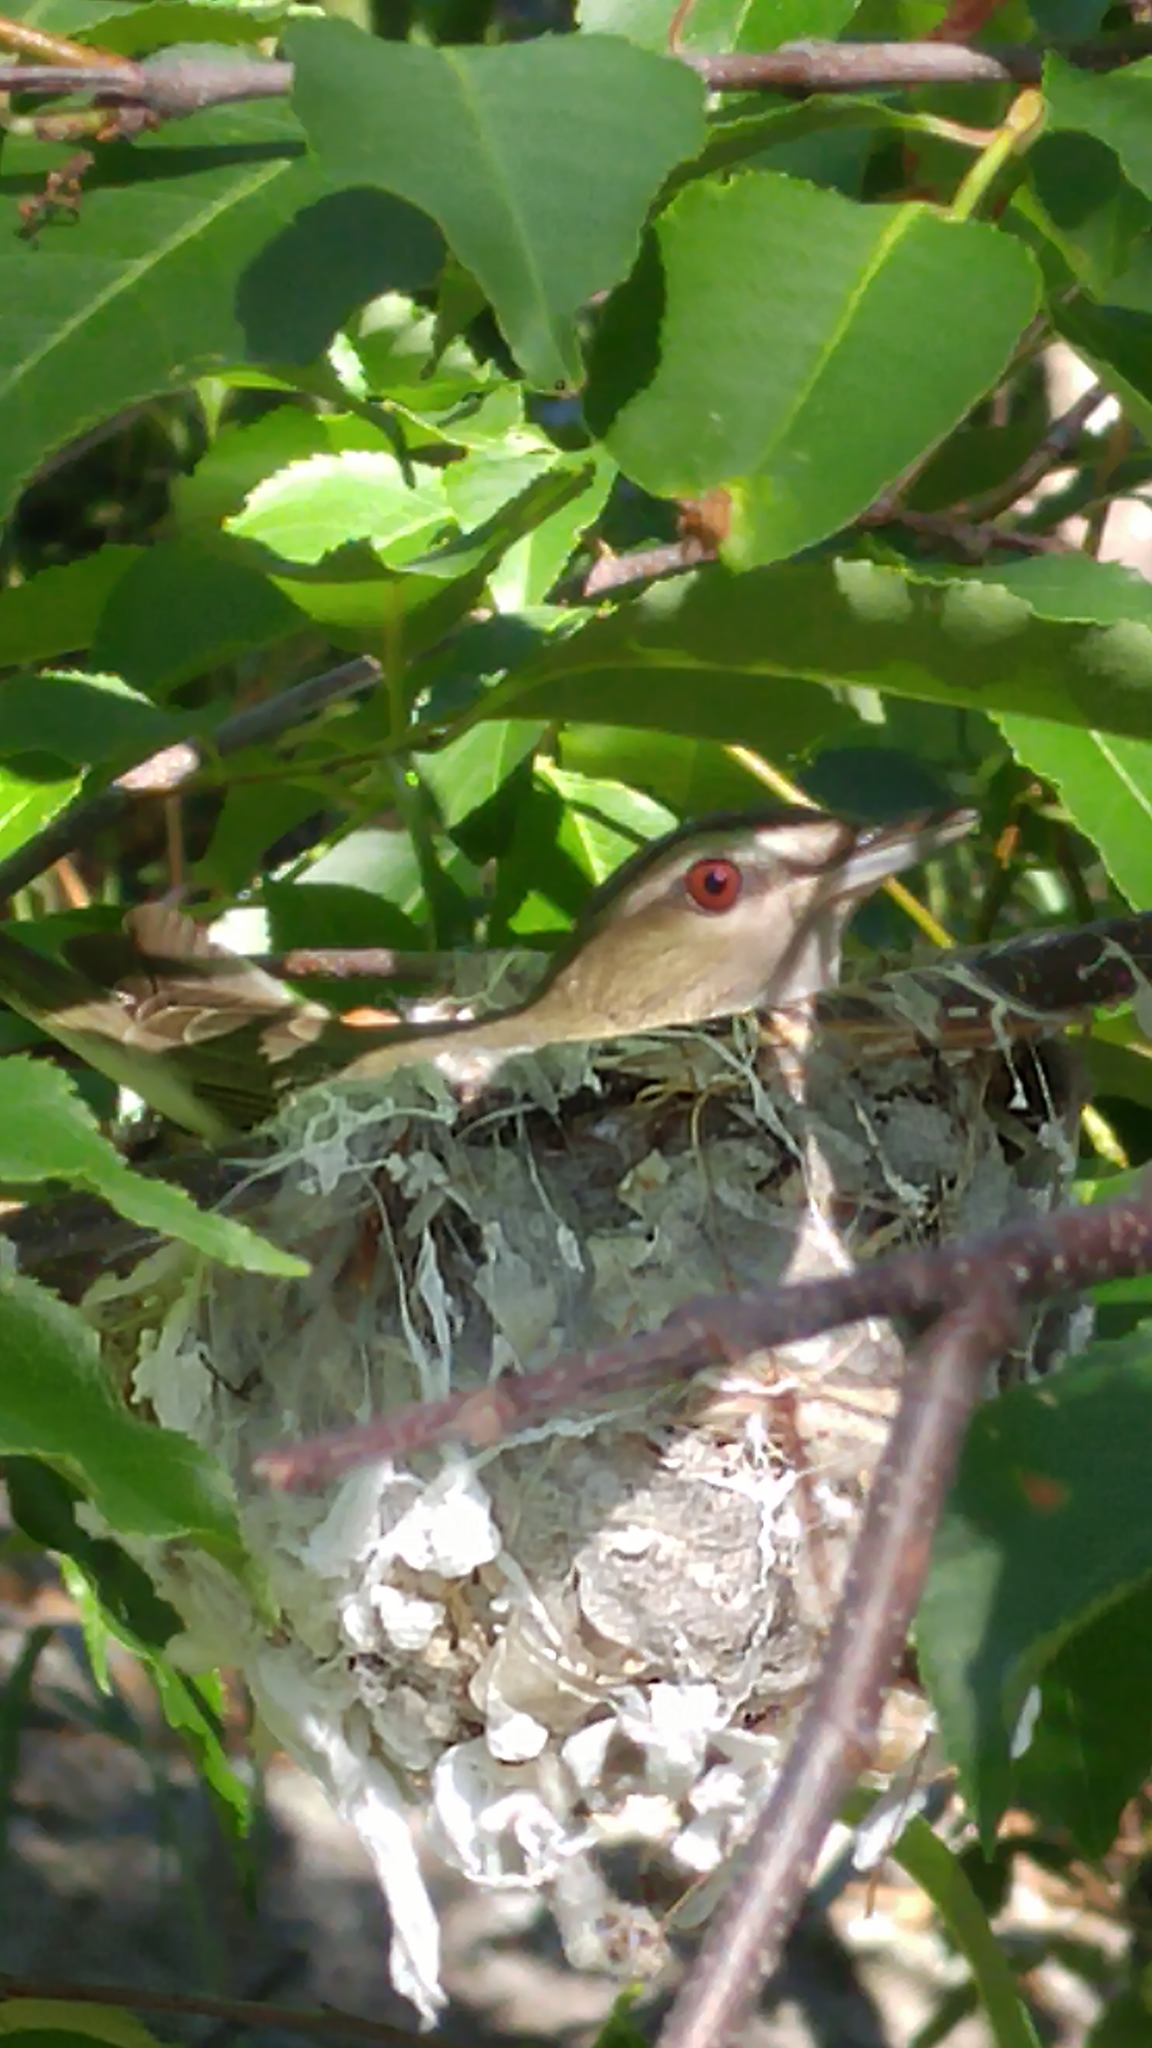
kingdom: Animalia
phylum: Chordata
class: Aves
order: Passeriformes
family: Vireonidae
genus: Vireo
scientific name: Vireo olivaceus
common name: Red-eyed vireo
